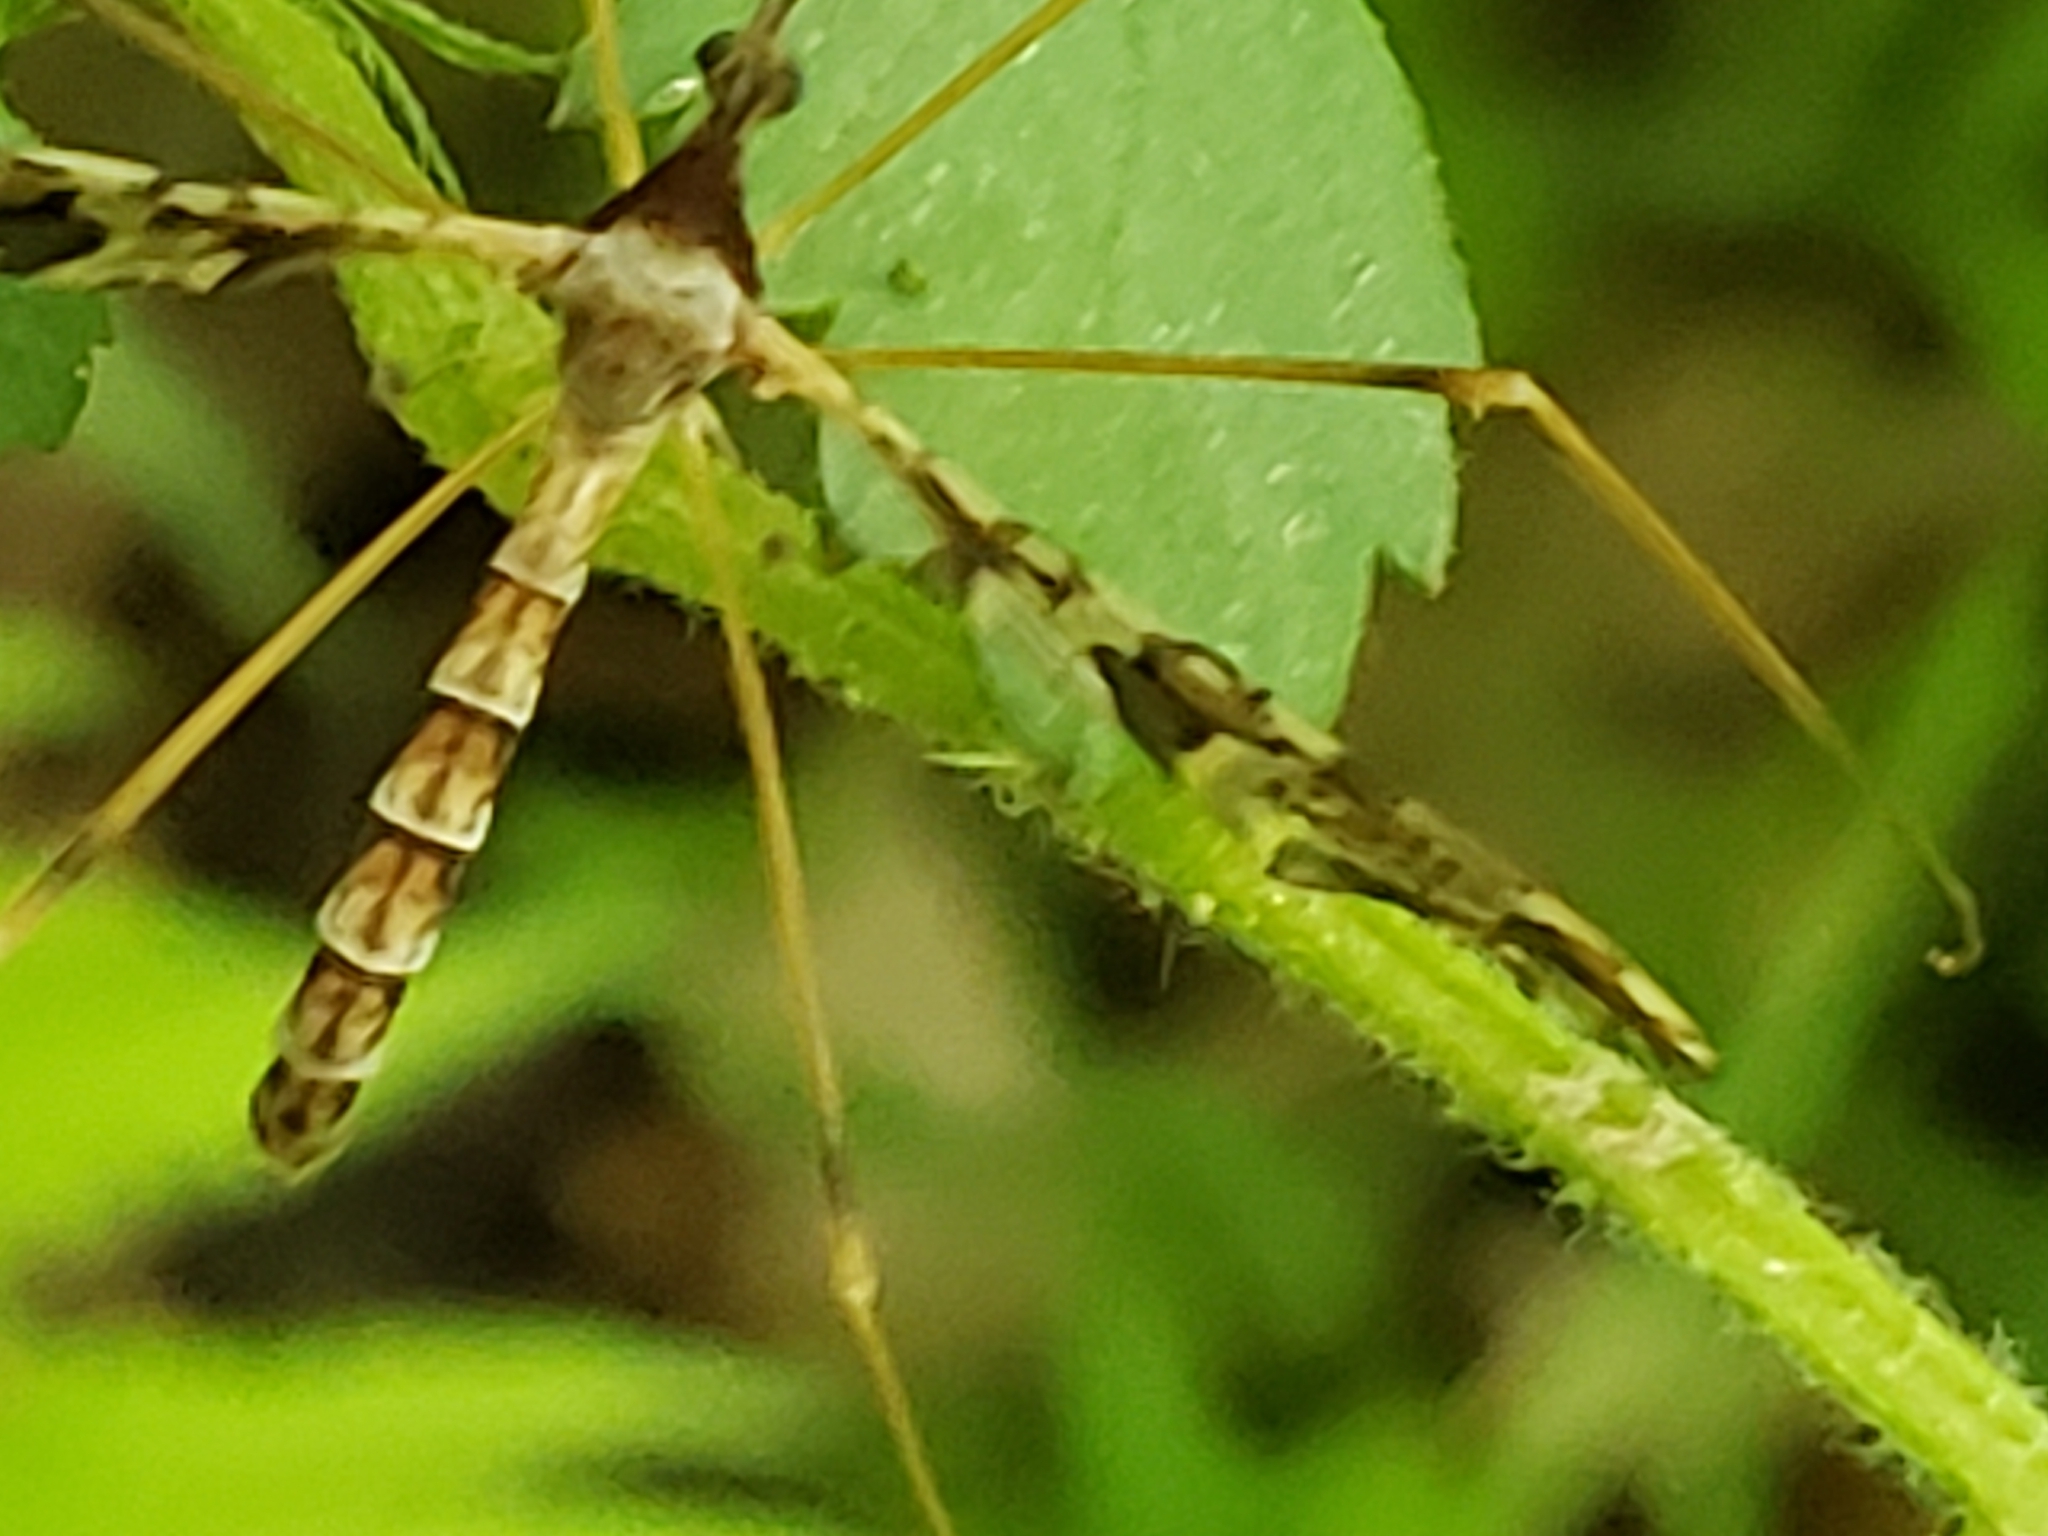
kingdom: Animalia
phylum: Arthropoda
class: Insecta
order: Diptera
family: Limoniidae
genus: Epiphragma
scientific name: Epiphragma solatrix
